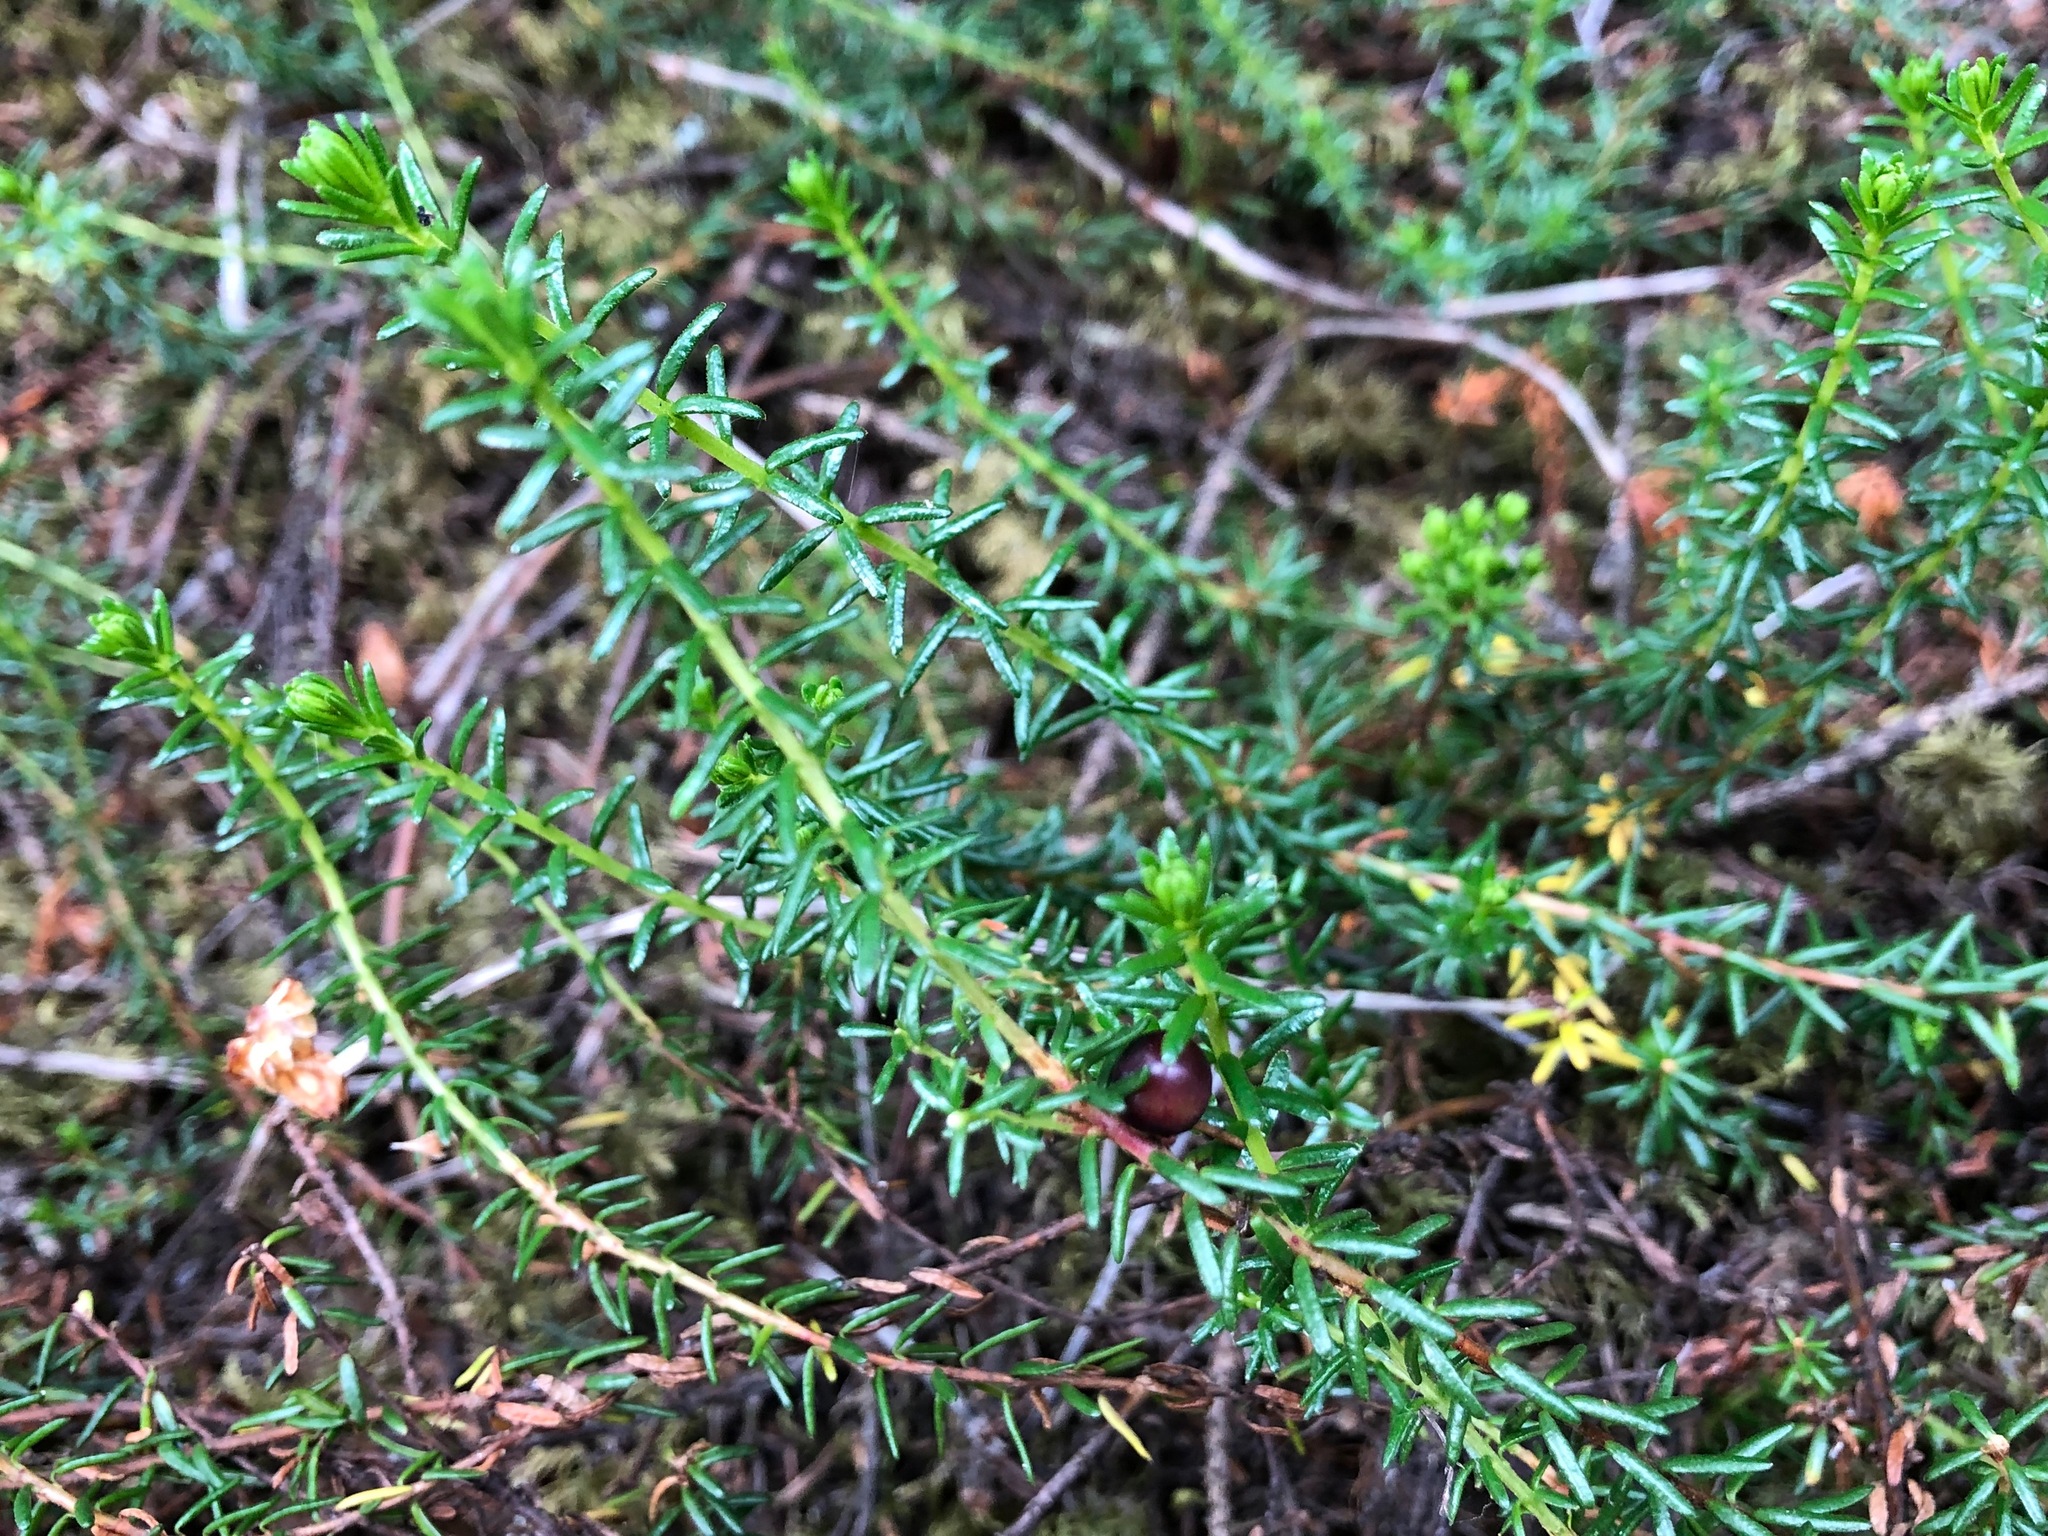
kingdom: Plantae
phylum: Tracheophyta
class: Magnoliopsida
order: Ericales
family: Ericaceae
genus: Empetrum
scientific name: Empetrum nigrum
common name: Black crowberry
